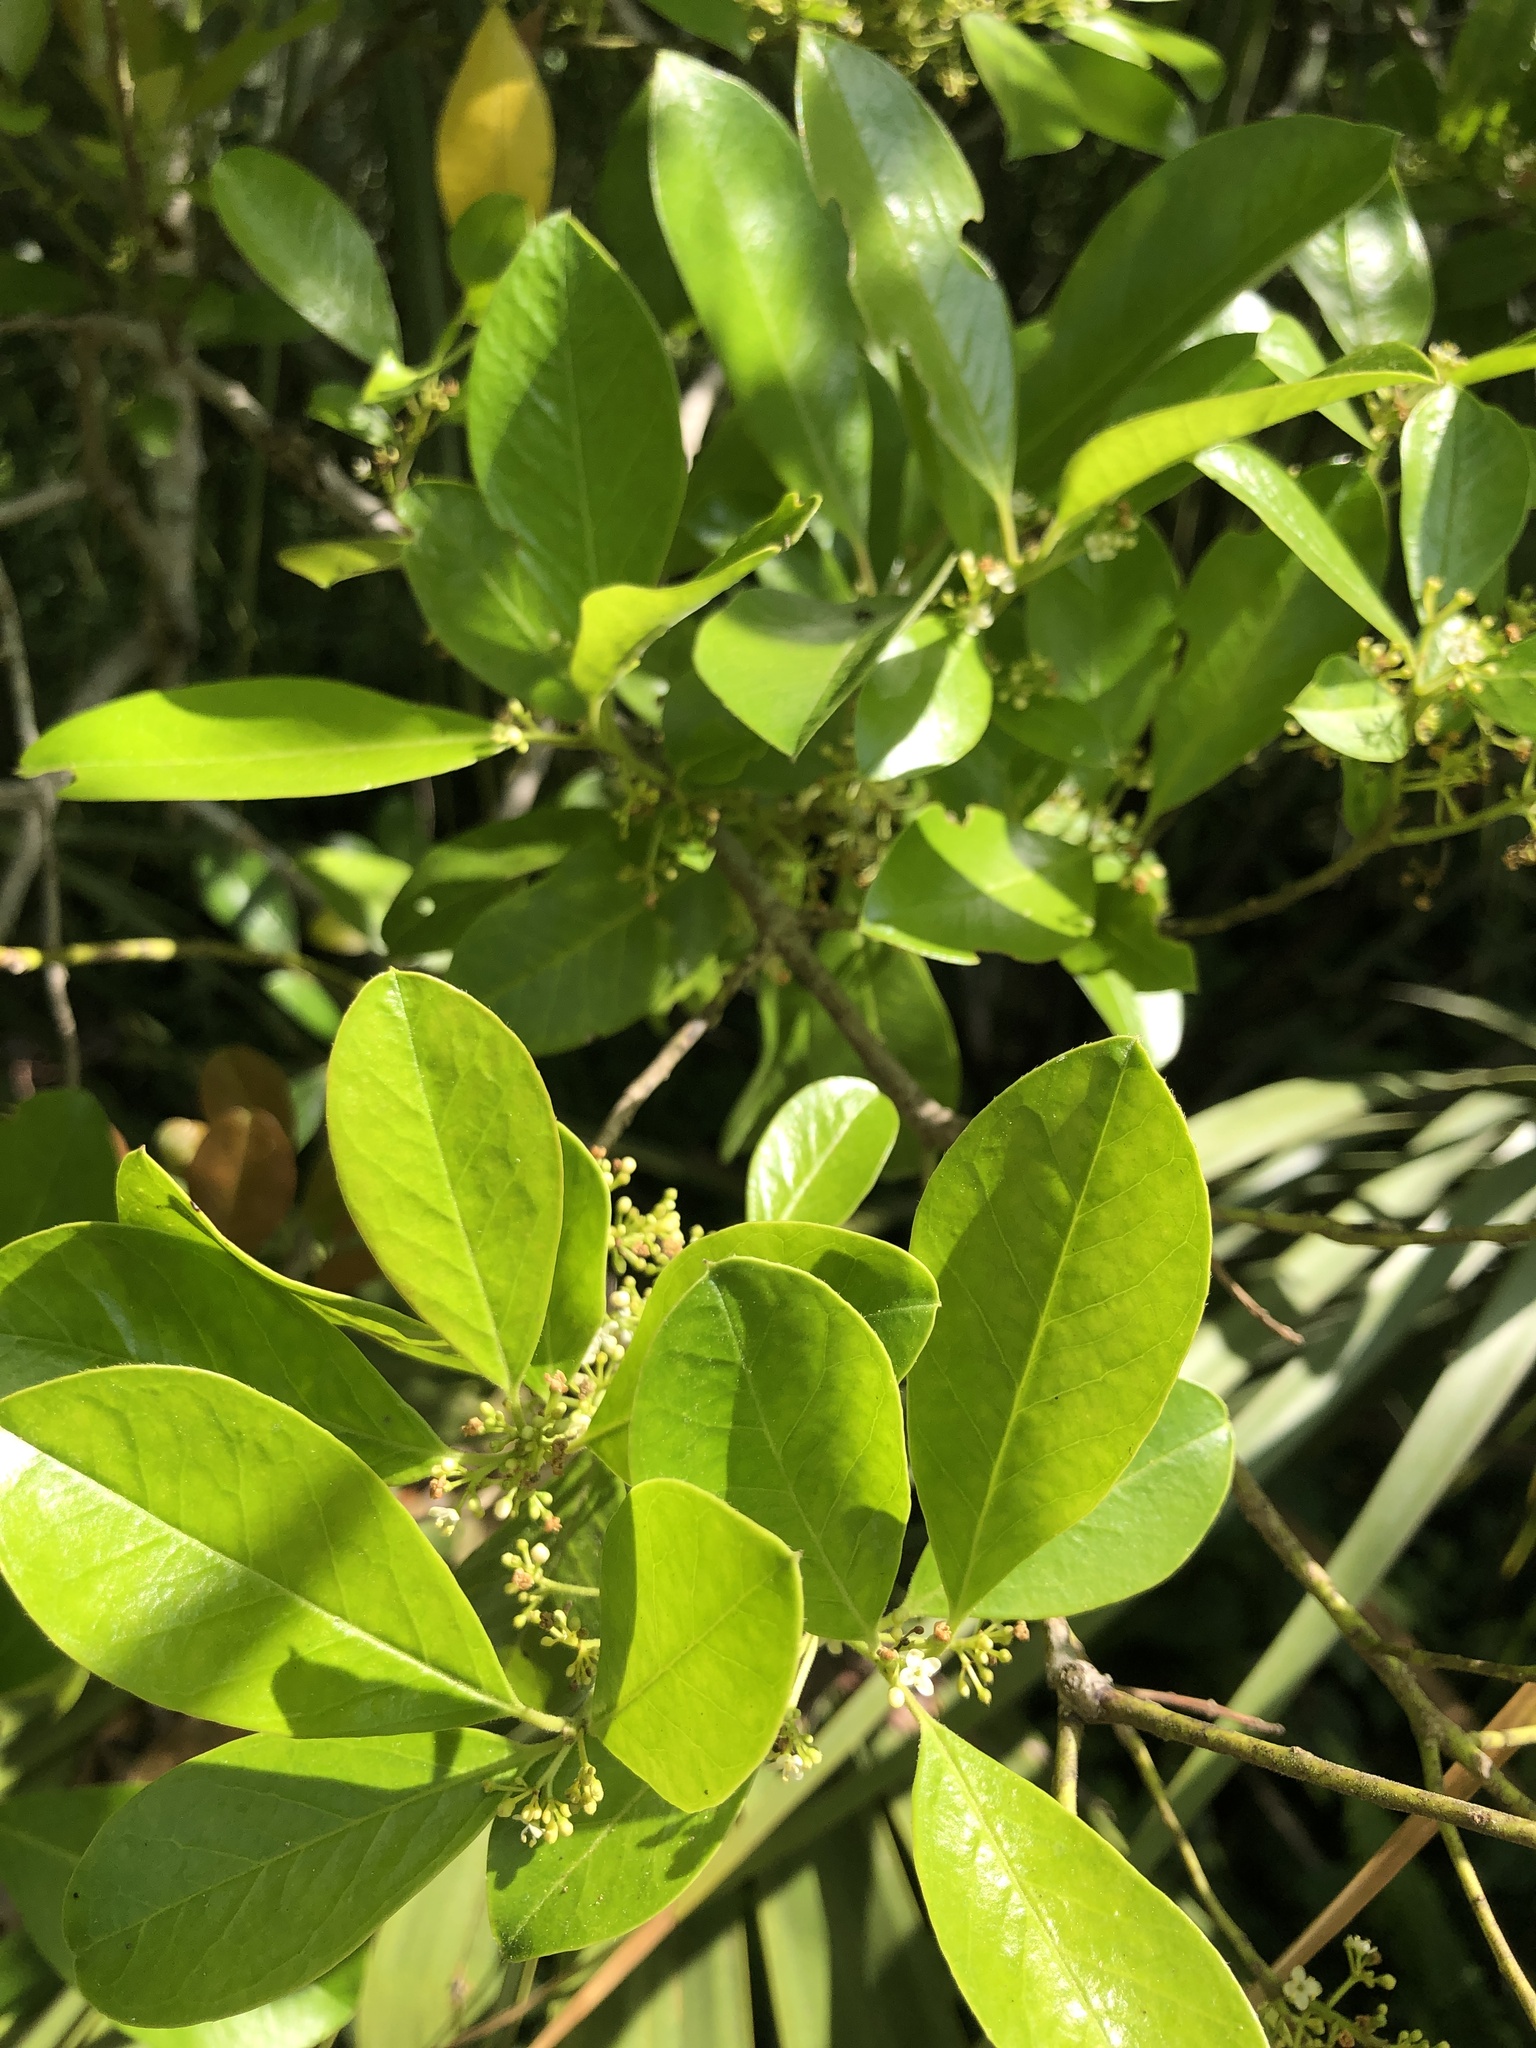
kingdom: Plantae
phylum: Tracheophyta
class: Magnoliopsida
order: Aquifoliales
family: Aquifoliaceae
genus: Ilex
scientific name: Ilex cassine
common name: Dahoon
